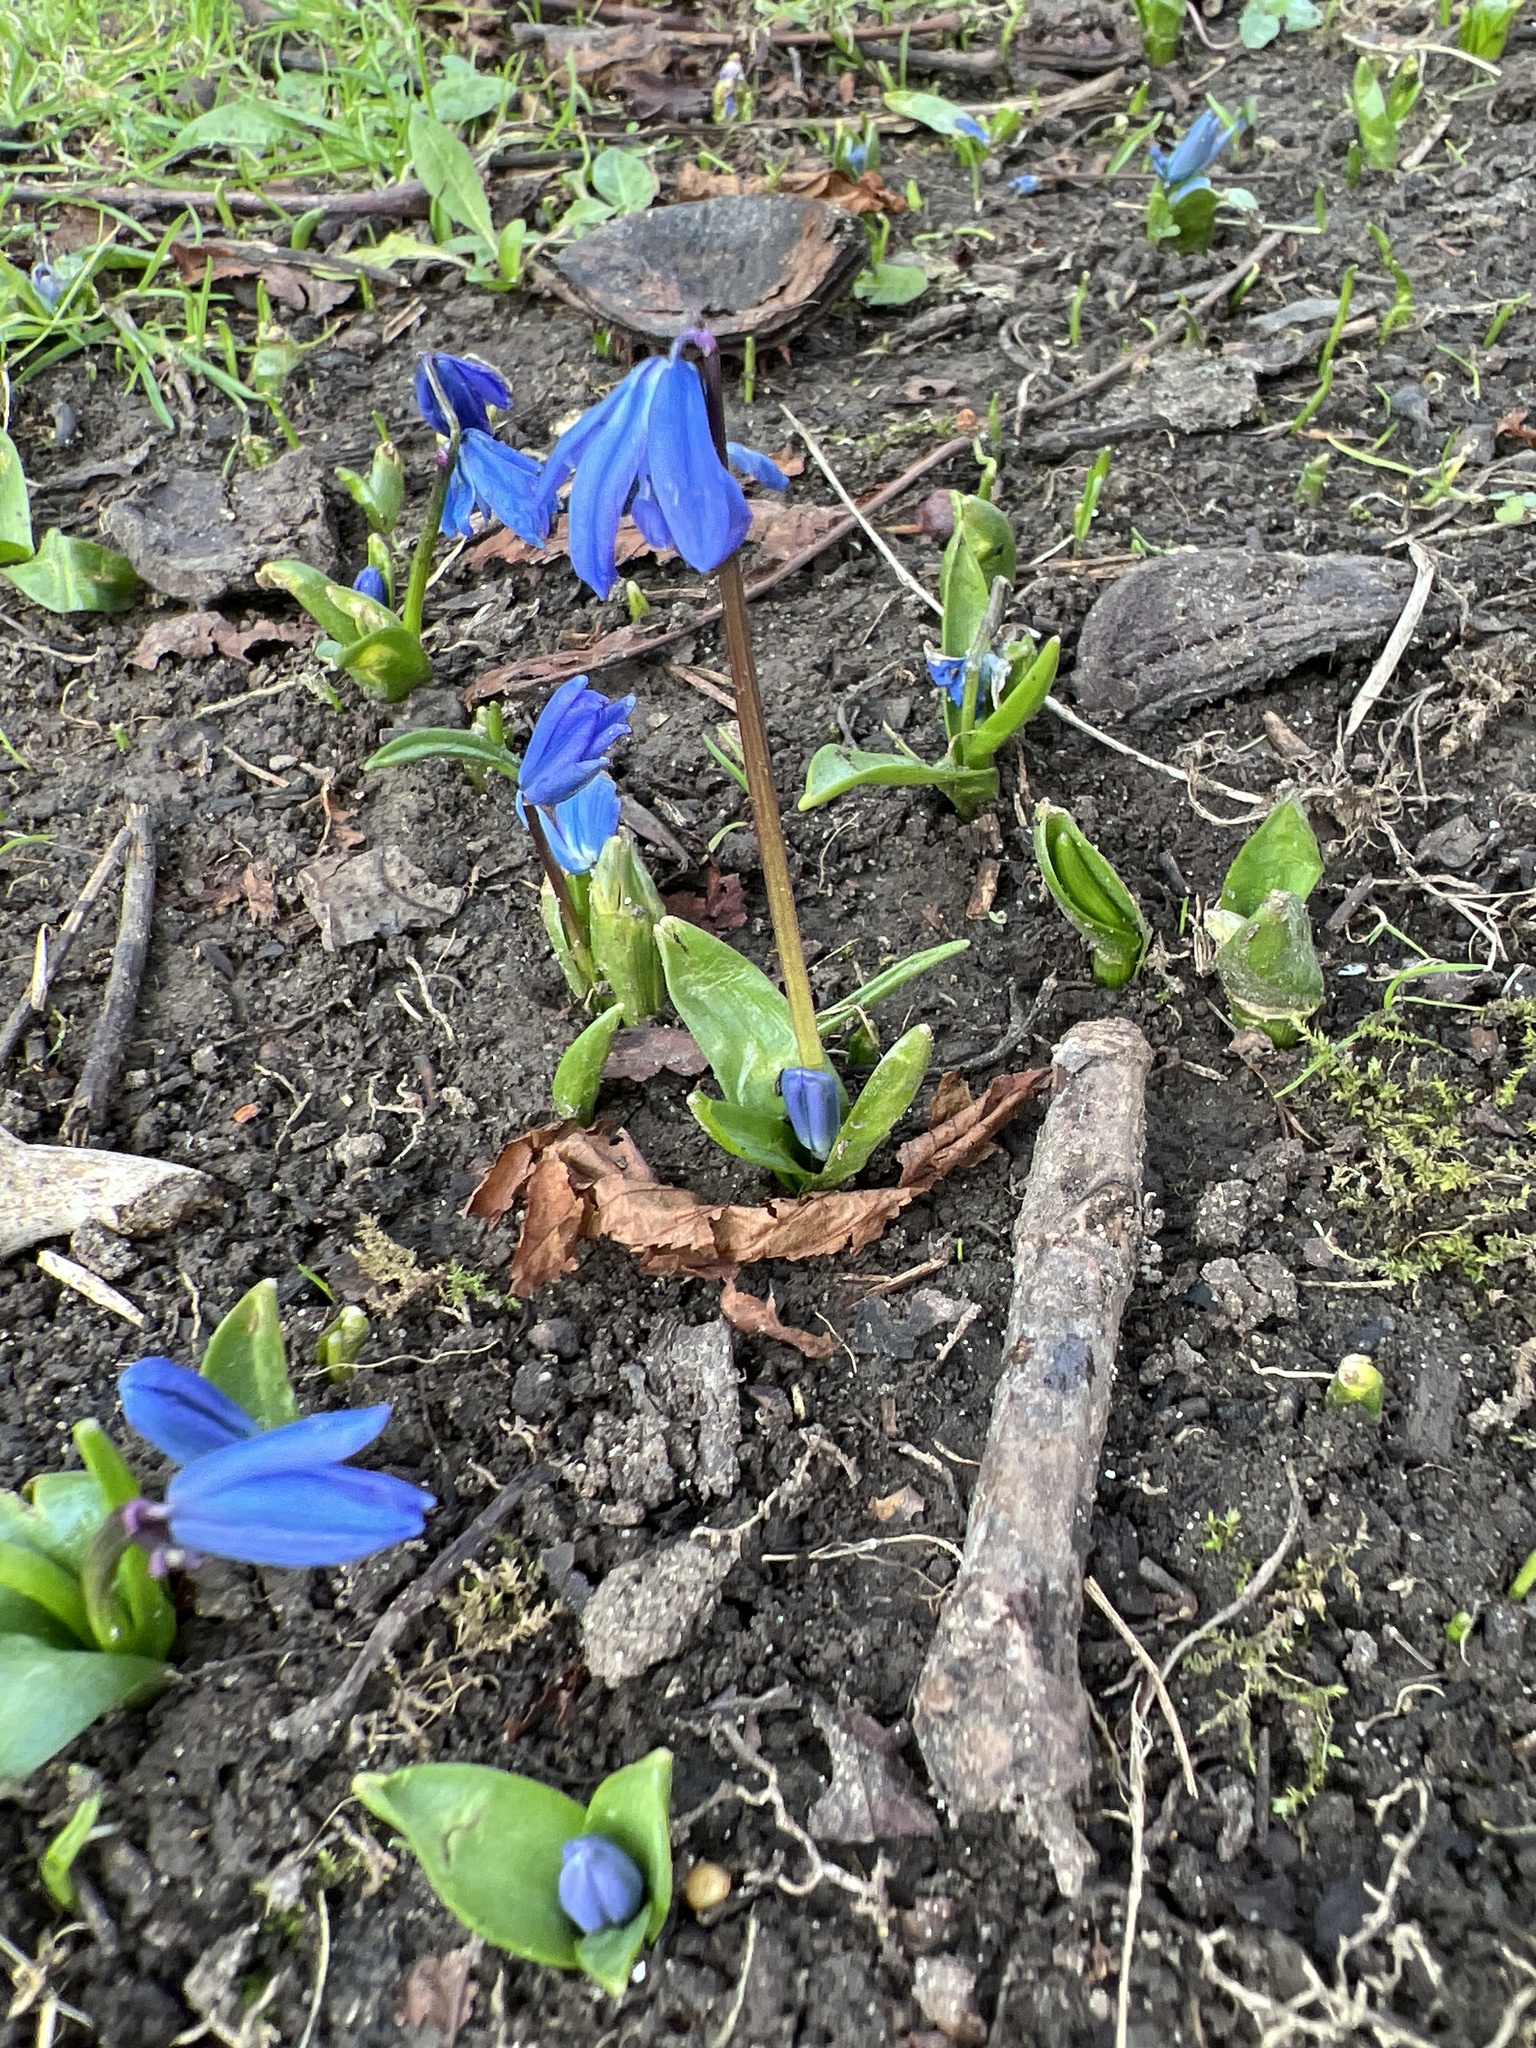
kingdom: Plantae
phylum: Tracheophyta
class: Liliopsida
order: Asparagales
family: Asparagaceae
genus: Scilla
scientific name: Scilla siberica
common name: Siberian squill
